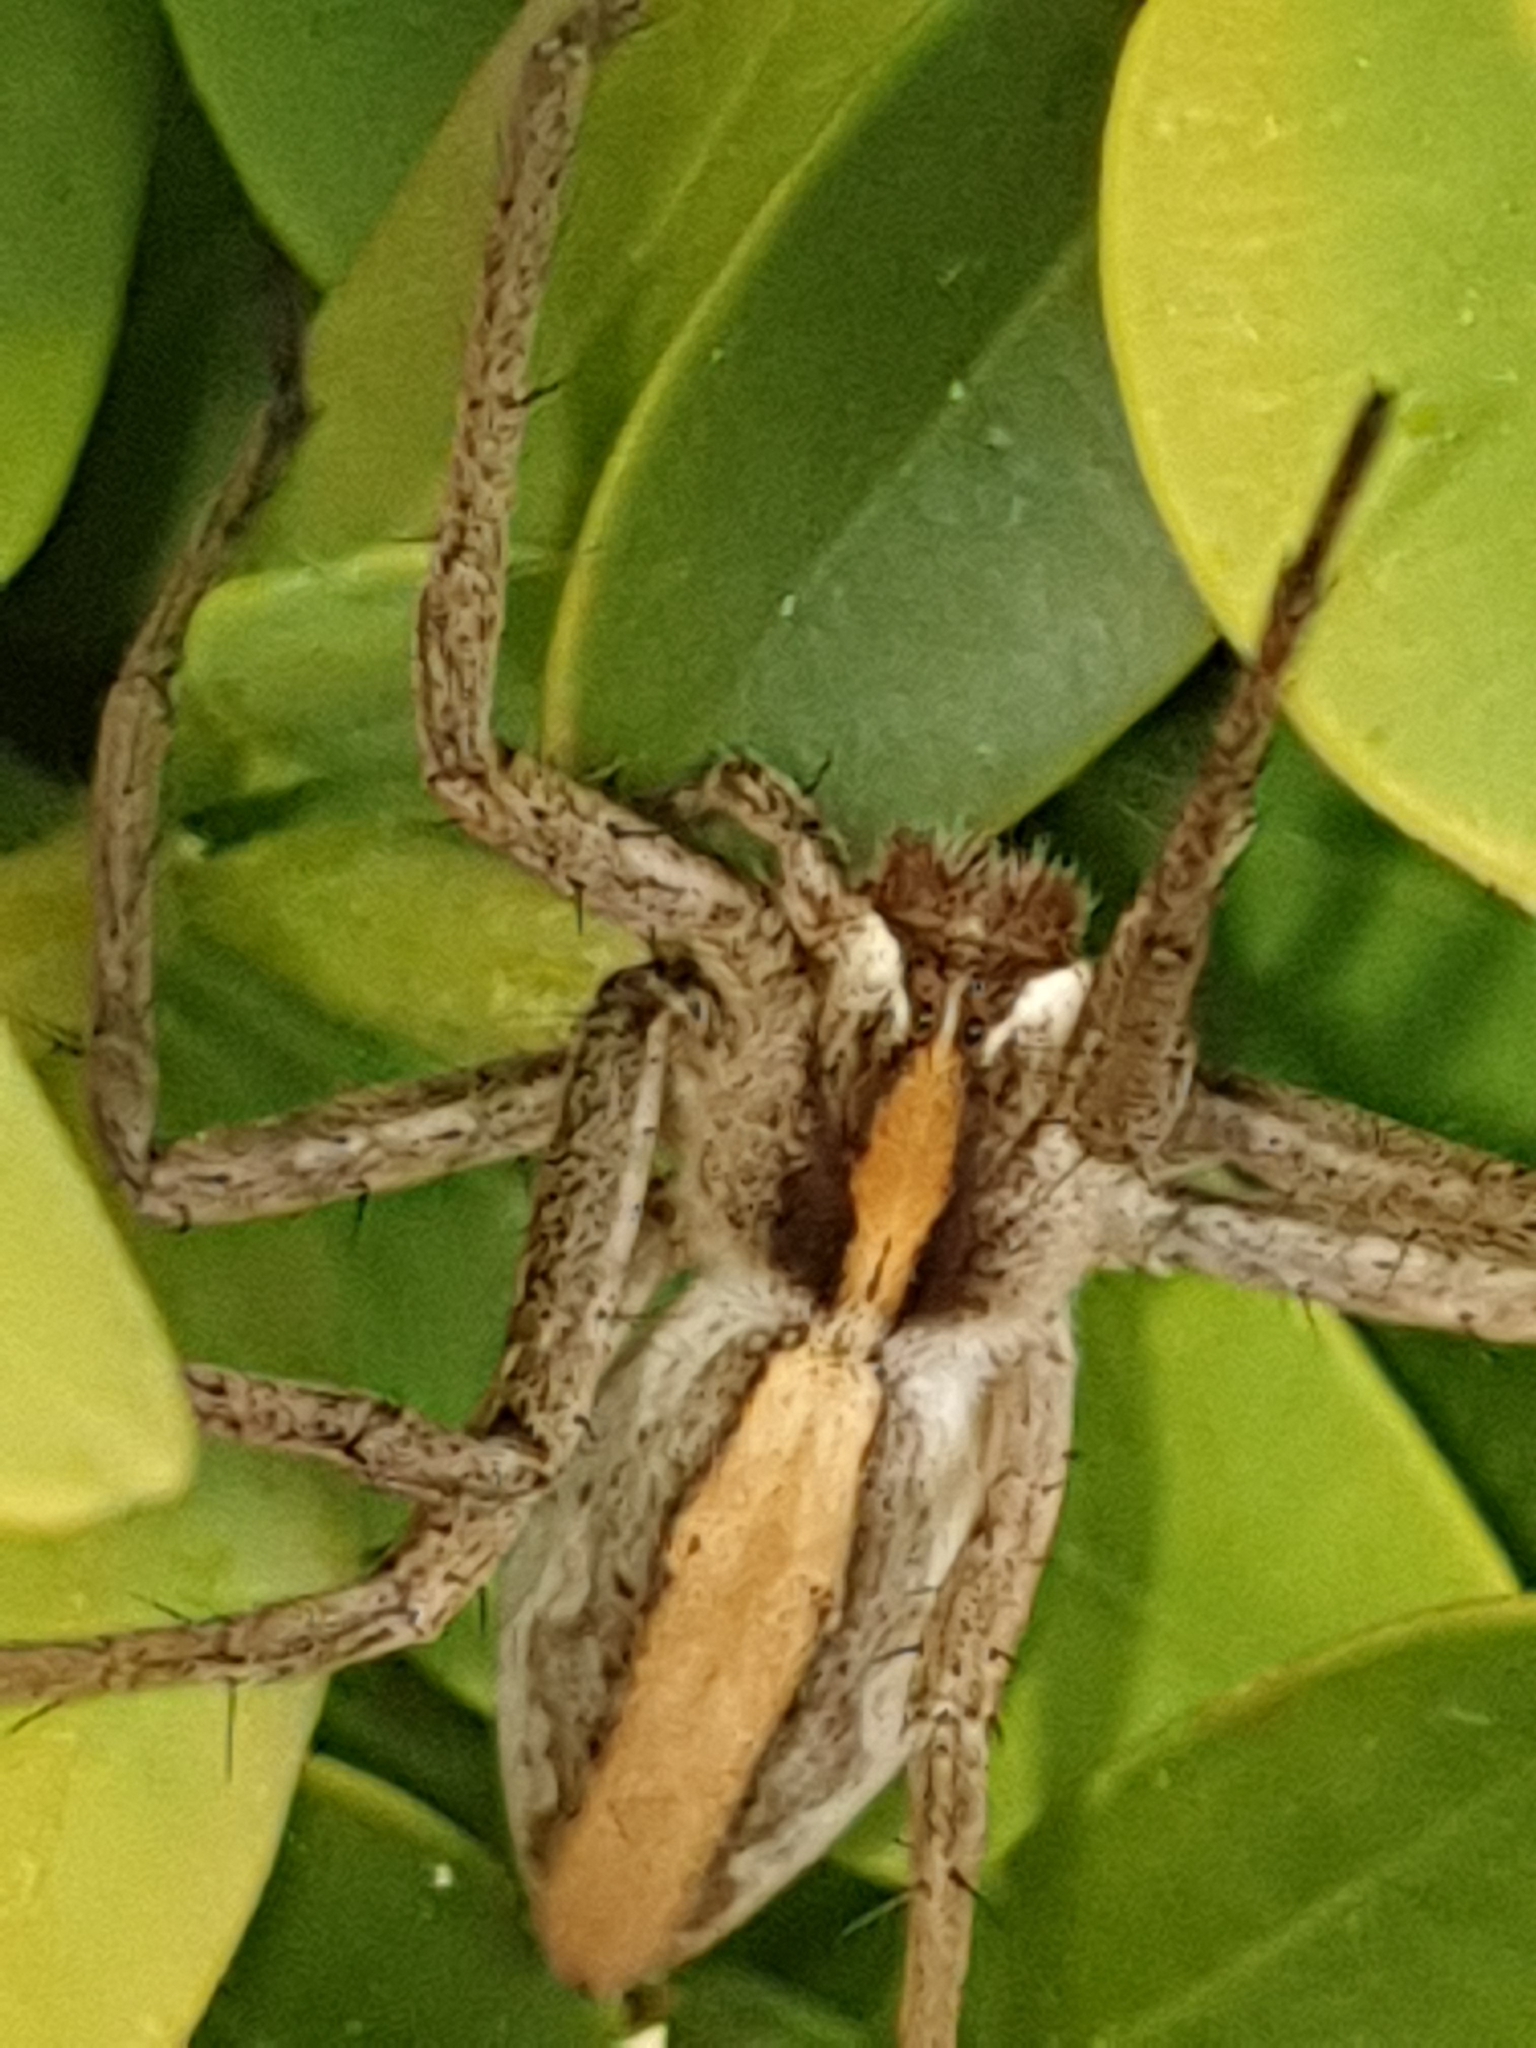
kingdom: Animalia
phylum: Arthropoda
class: Arachnida
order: Araneae
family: Pisauridae
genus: Pisaura
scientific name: Pisaura mirabilis
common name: Tent spider
